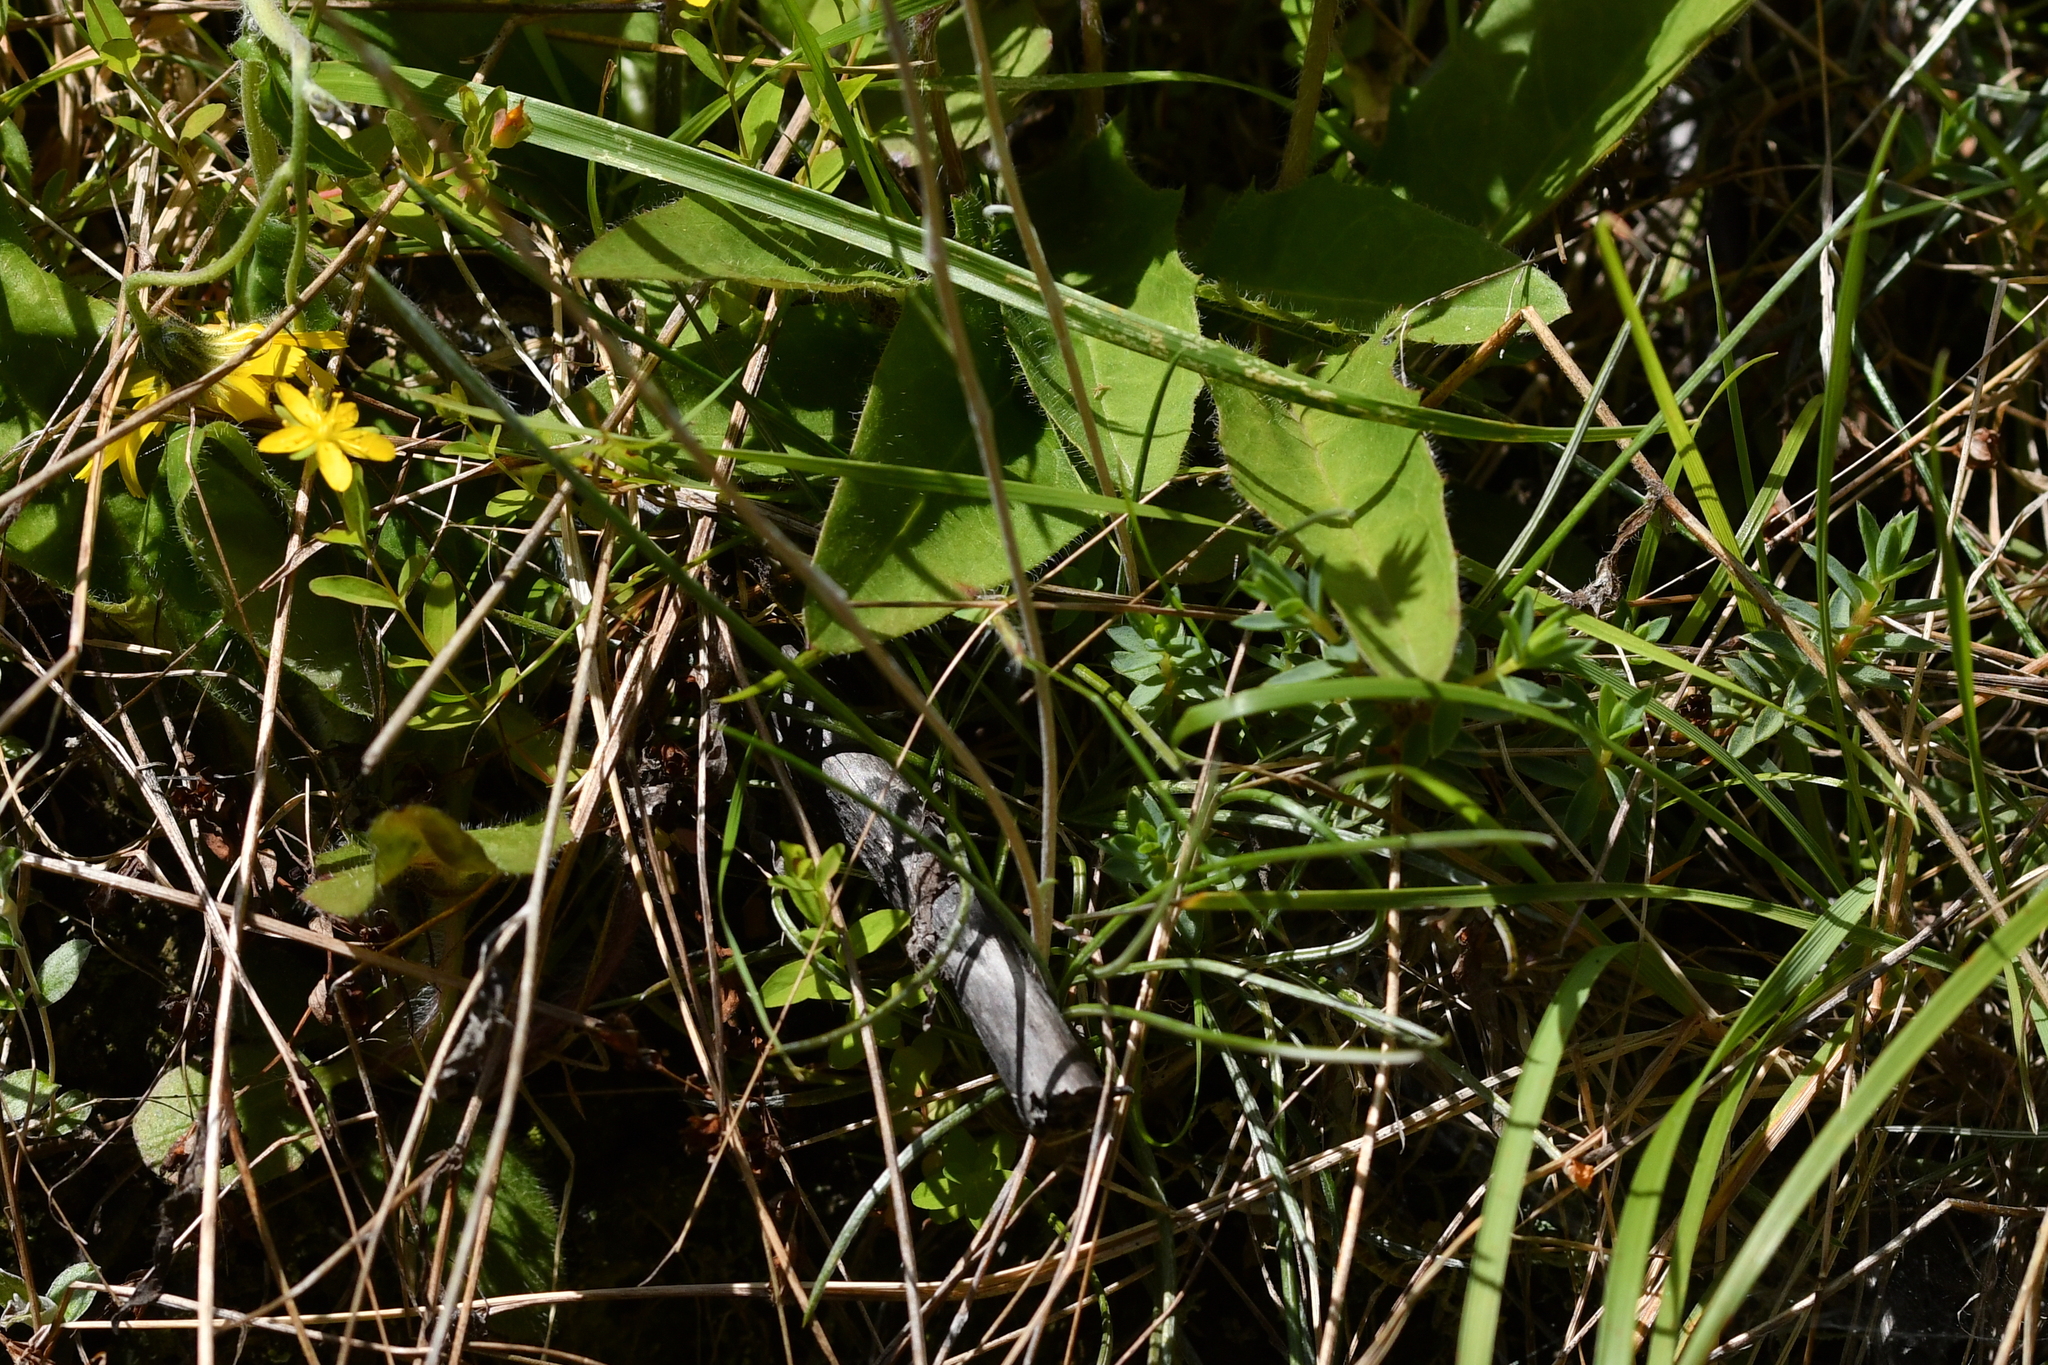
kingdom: Plantae
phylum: Tracheophyta
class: Magnoliopsida
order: Asterales
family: Asteraceae
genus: Celmisia
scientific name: Celmisia gracilenta
